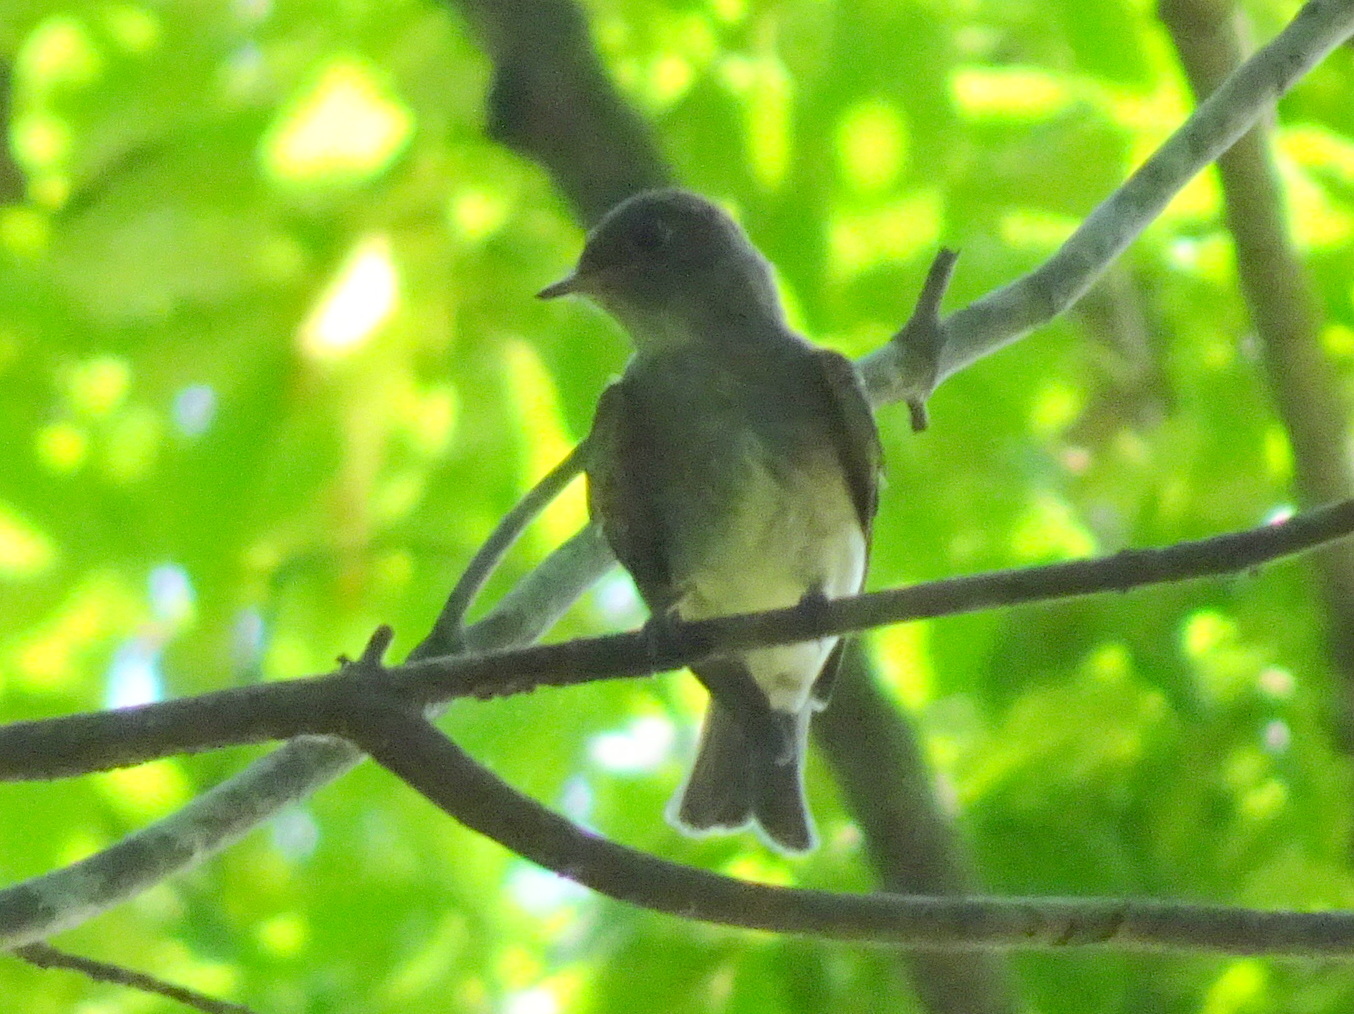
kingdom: Animalia
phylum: Chordata
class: Aves
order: Passeriformes
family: Tyrannidae
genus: Contopus
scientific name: Contopus virens
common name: Eastern wood-pewee
